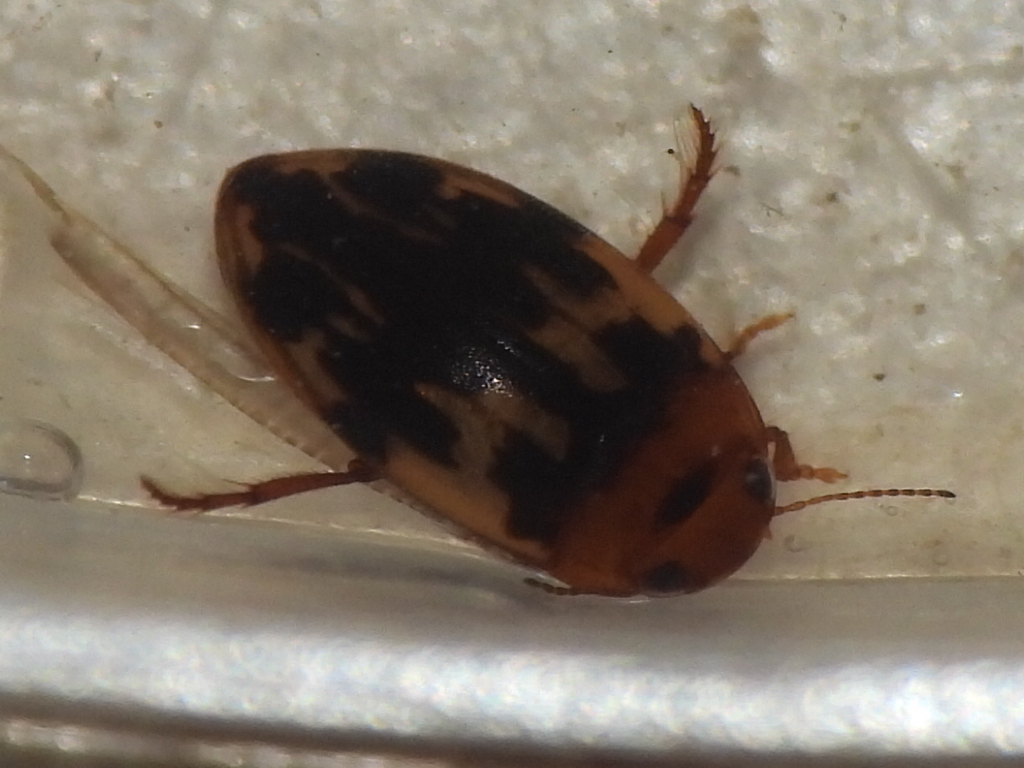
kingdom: Animalia
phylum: Arthropoda
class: Insecta
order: Coleoptera
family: Dytiscidae
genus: Neoporus
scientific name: Neoporus
